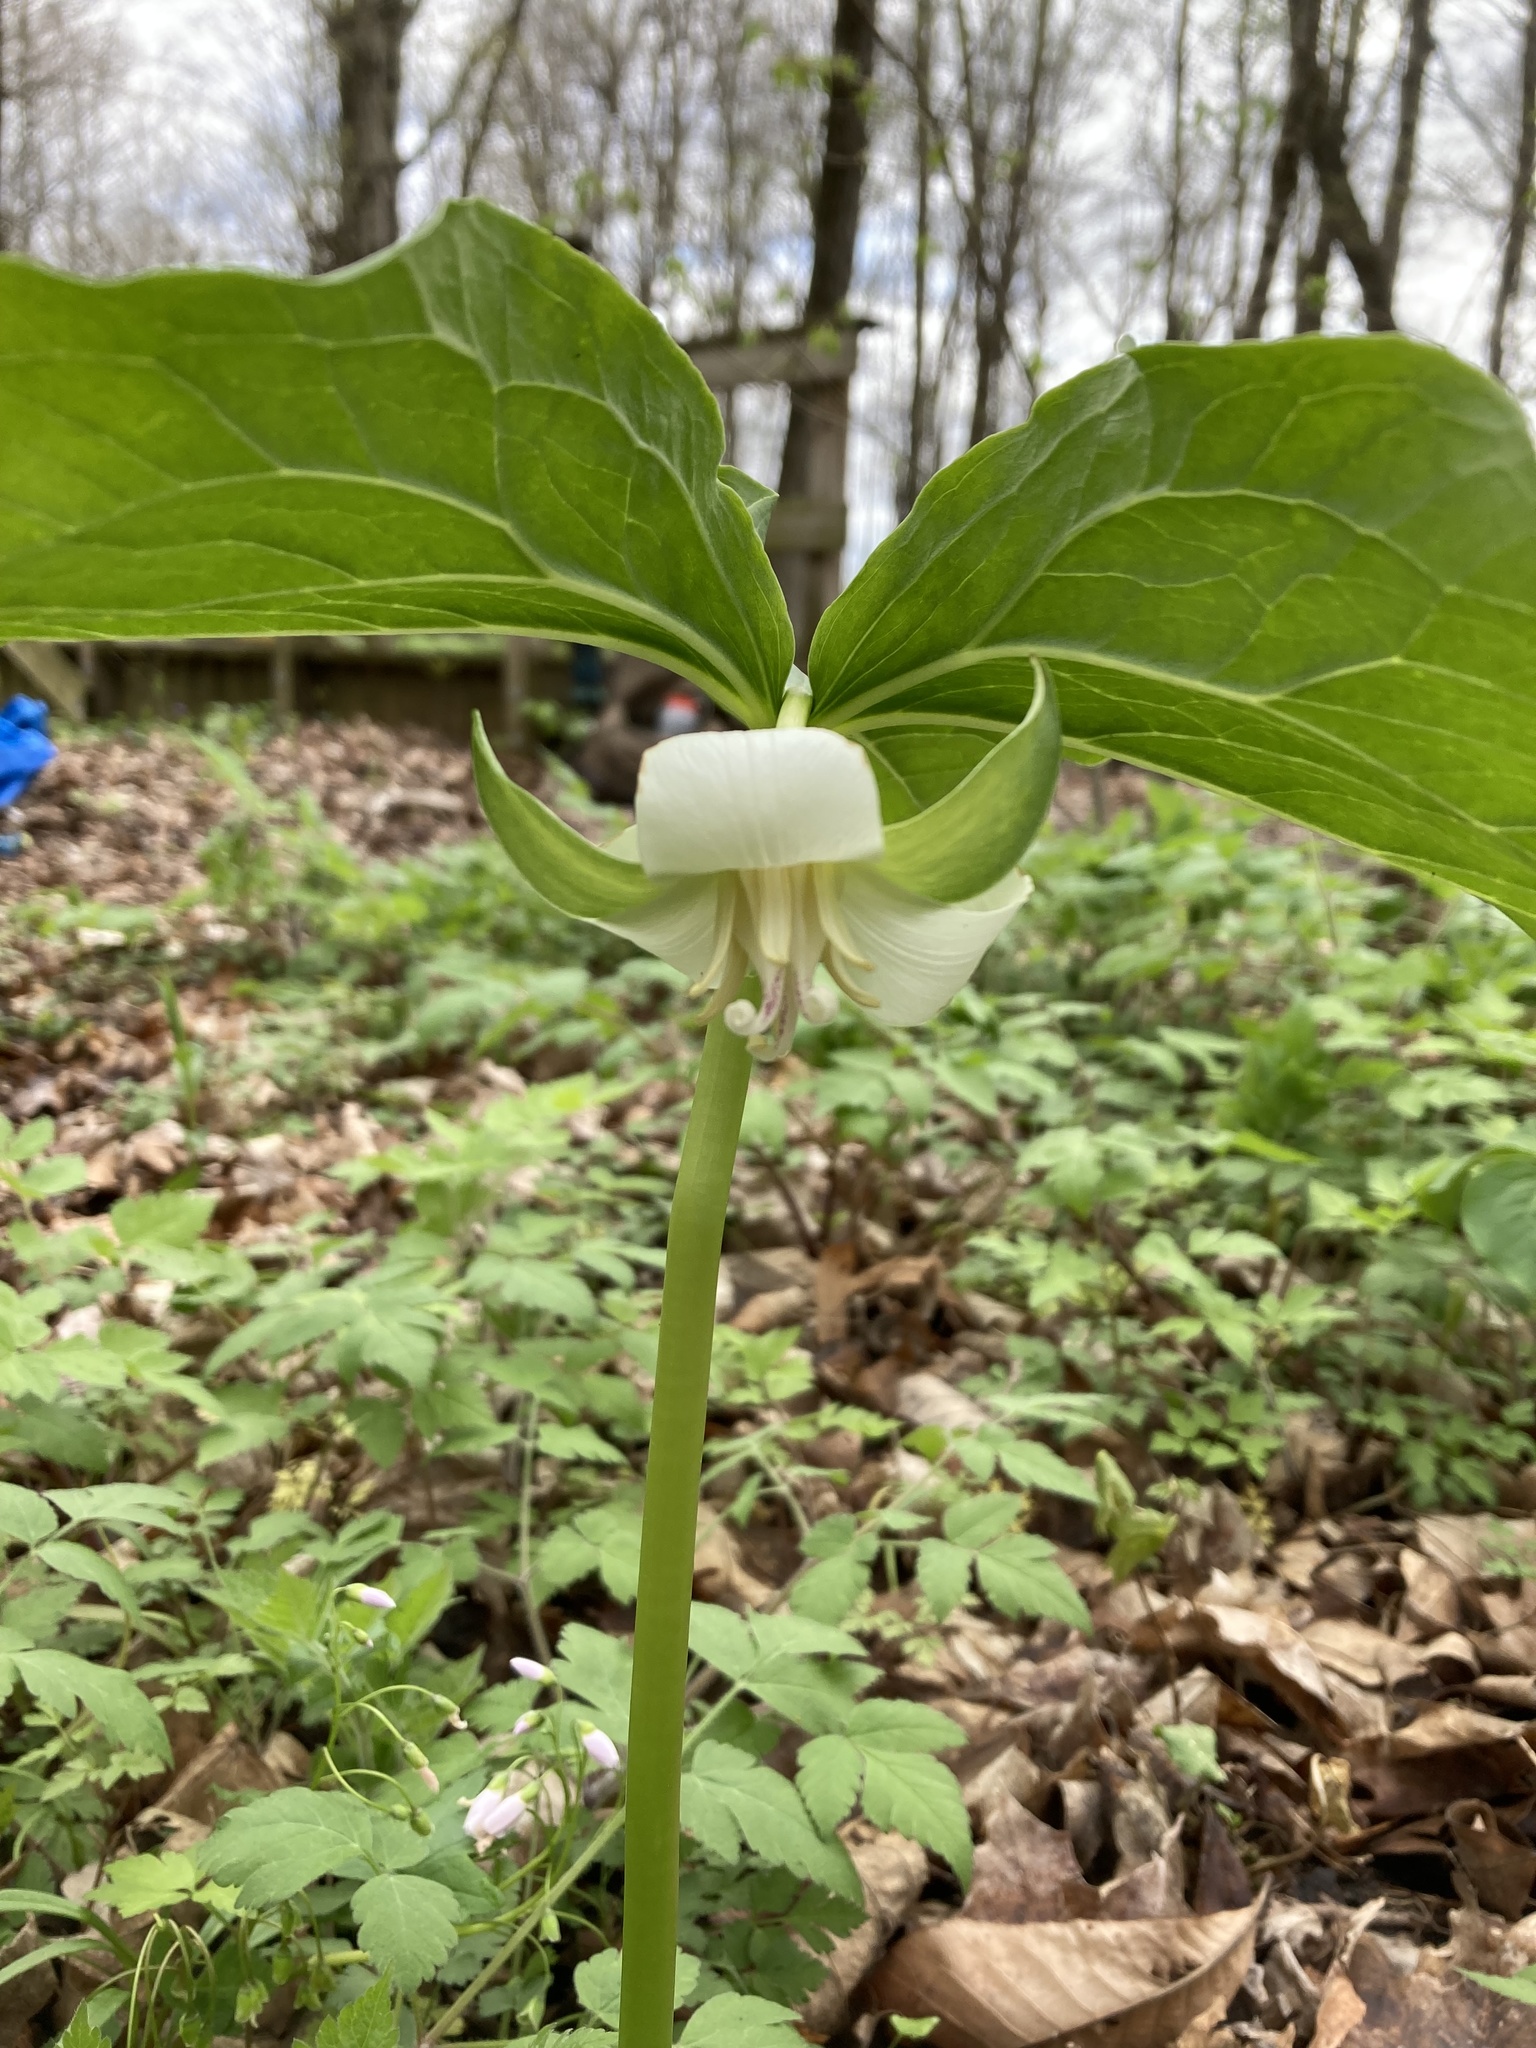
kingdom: Plantae
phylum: Tracheophyta
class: Liliopsida
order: Liliales
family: Melanthiaceae
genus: Trillium
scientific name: Trillium flexipes
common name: Drooping trillium
